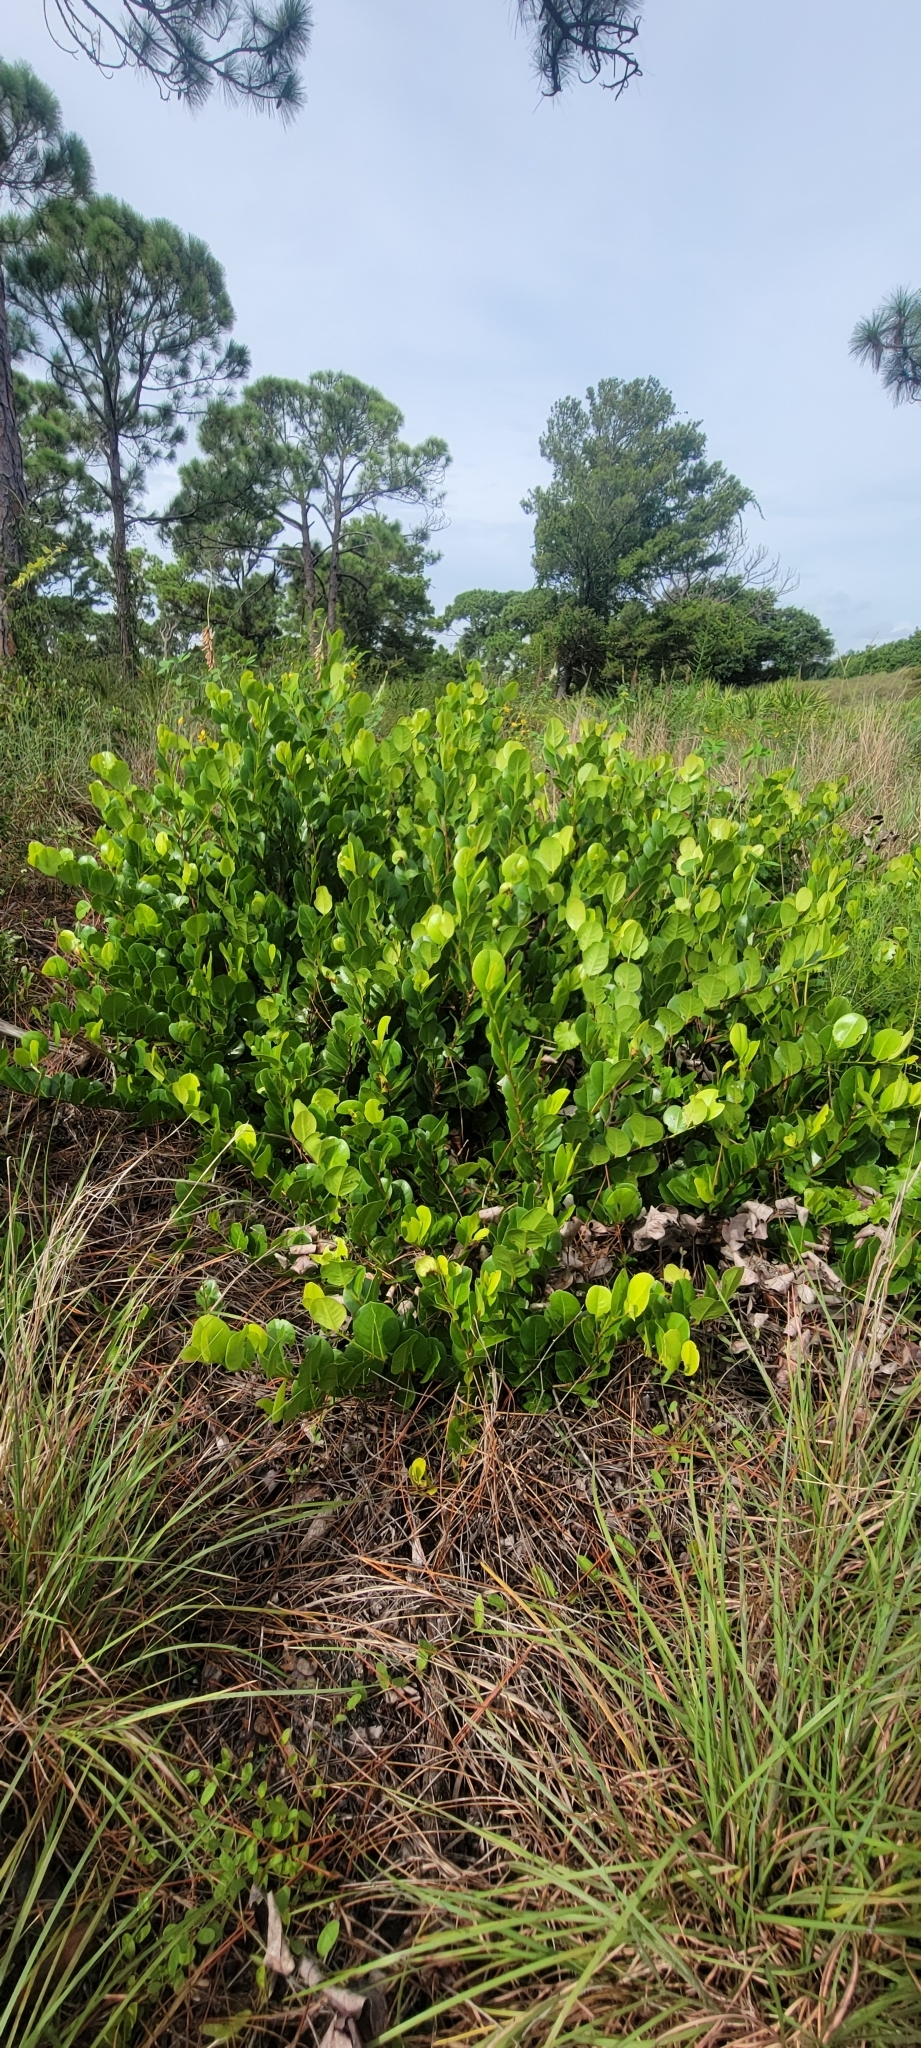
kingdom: Plantae
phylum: Tracheophyta
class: Magnoliopsida
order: Malpighiales
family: Chrysobalanaceae
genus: Chrysobalanus
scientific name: Chrysobalanus icaco
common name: Coco plum
